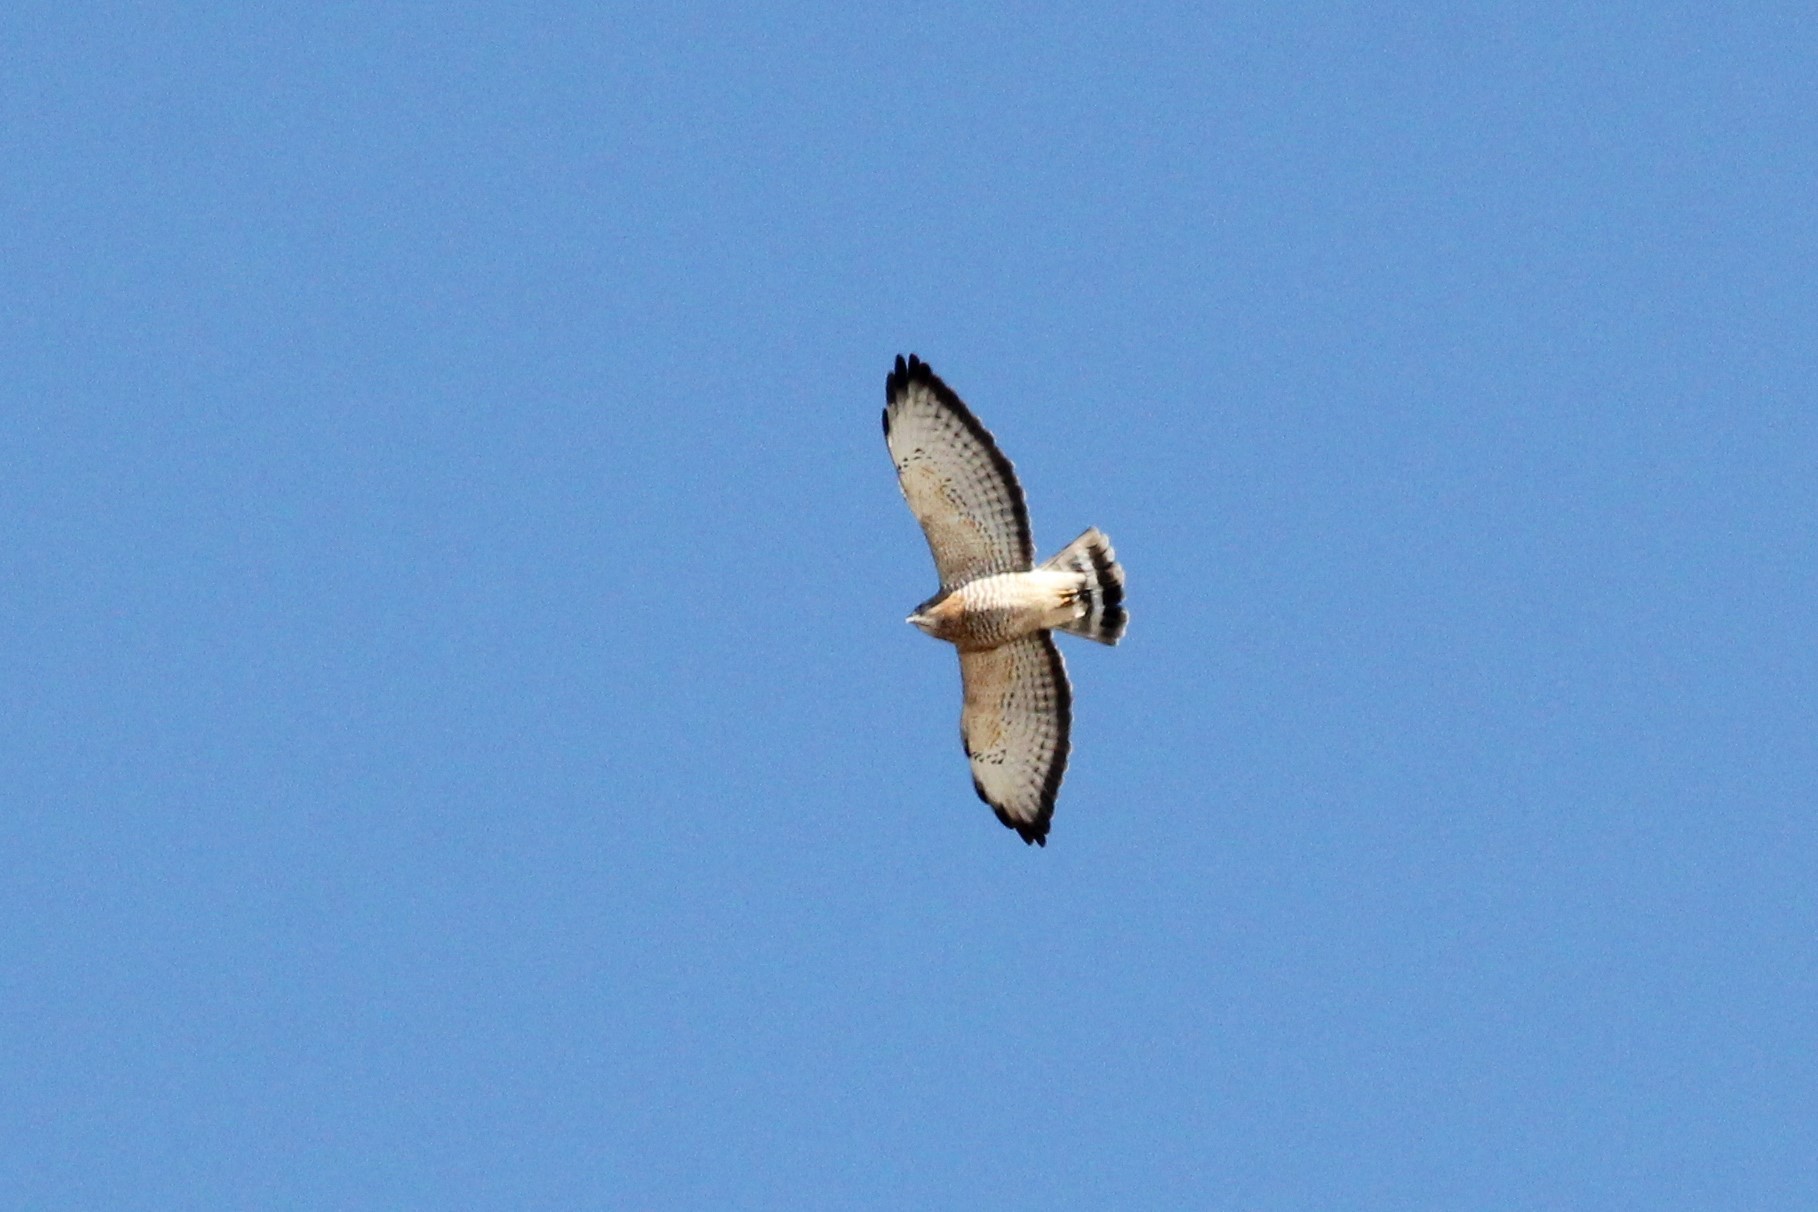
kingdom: Animalia
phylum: Chordata
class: Aves
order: Accipitriformes
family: Accipitridae
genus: Buteo
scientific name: Buteo platypterus
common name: Broad-winged hawk
